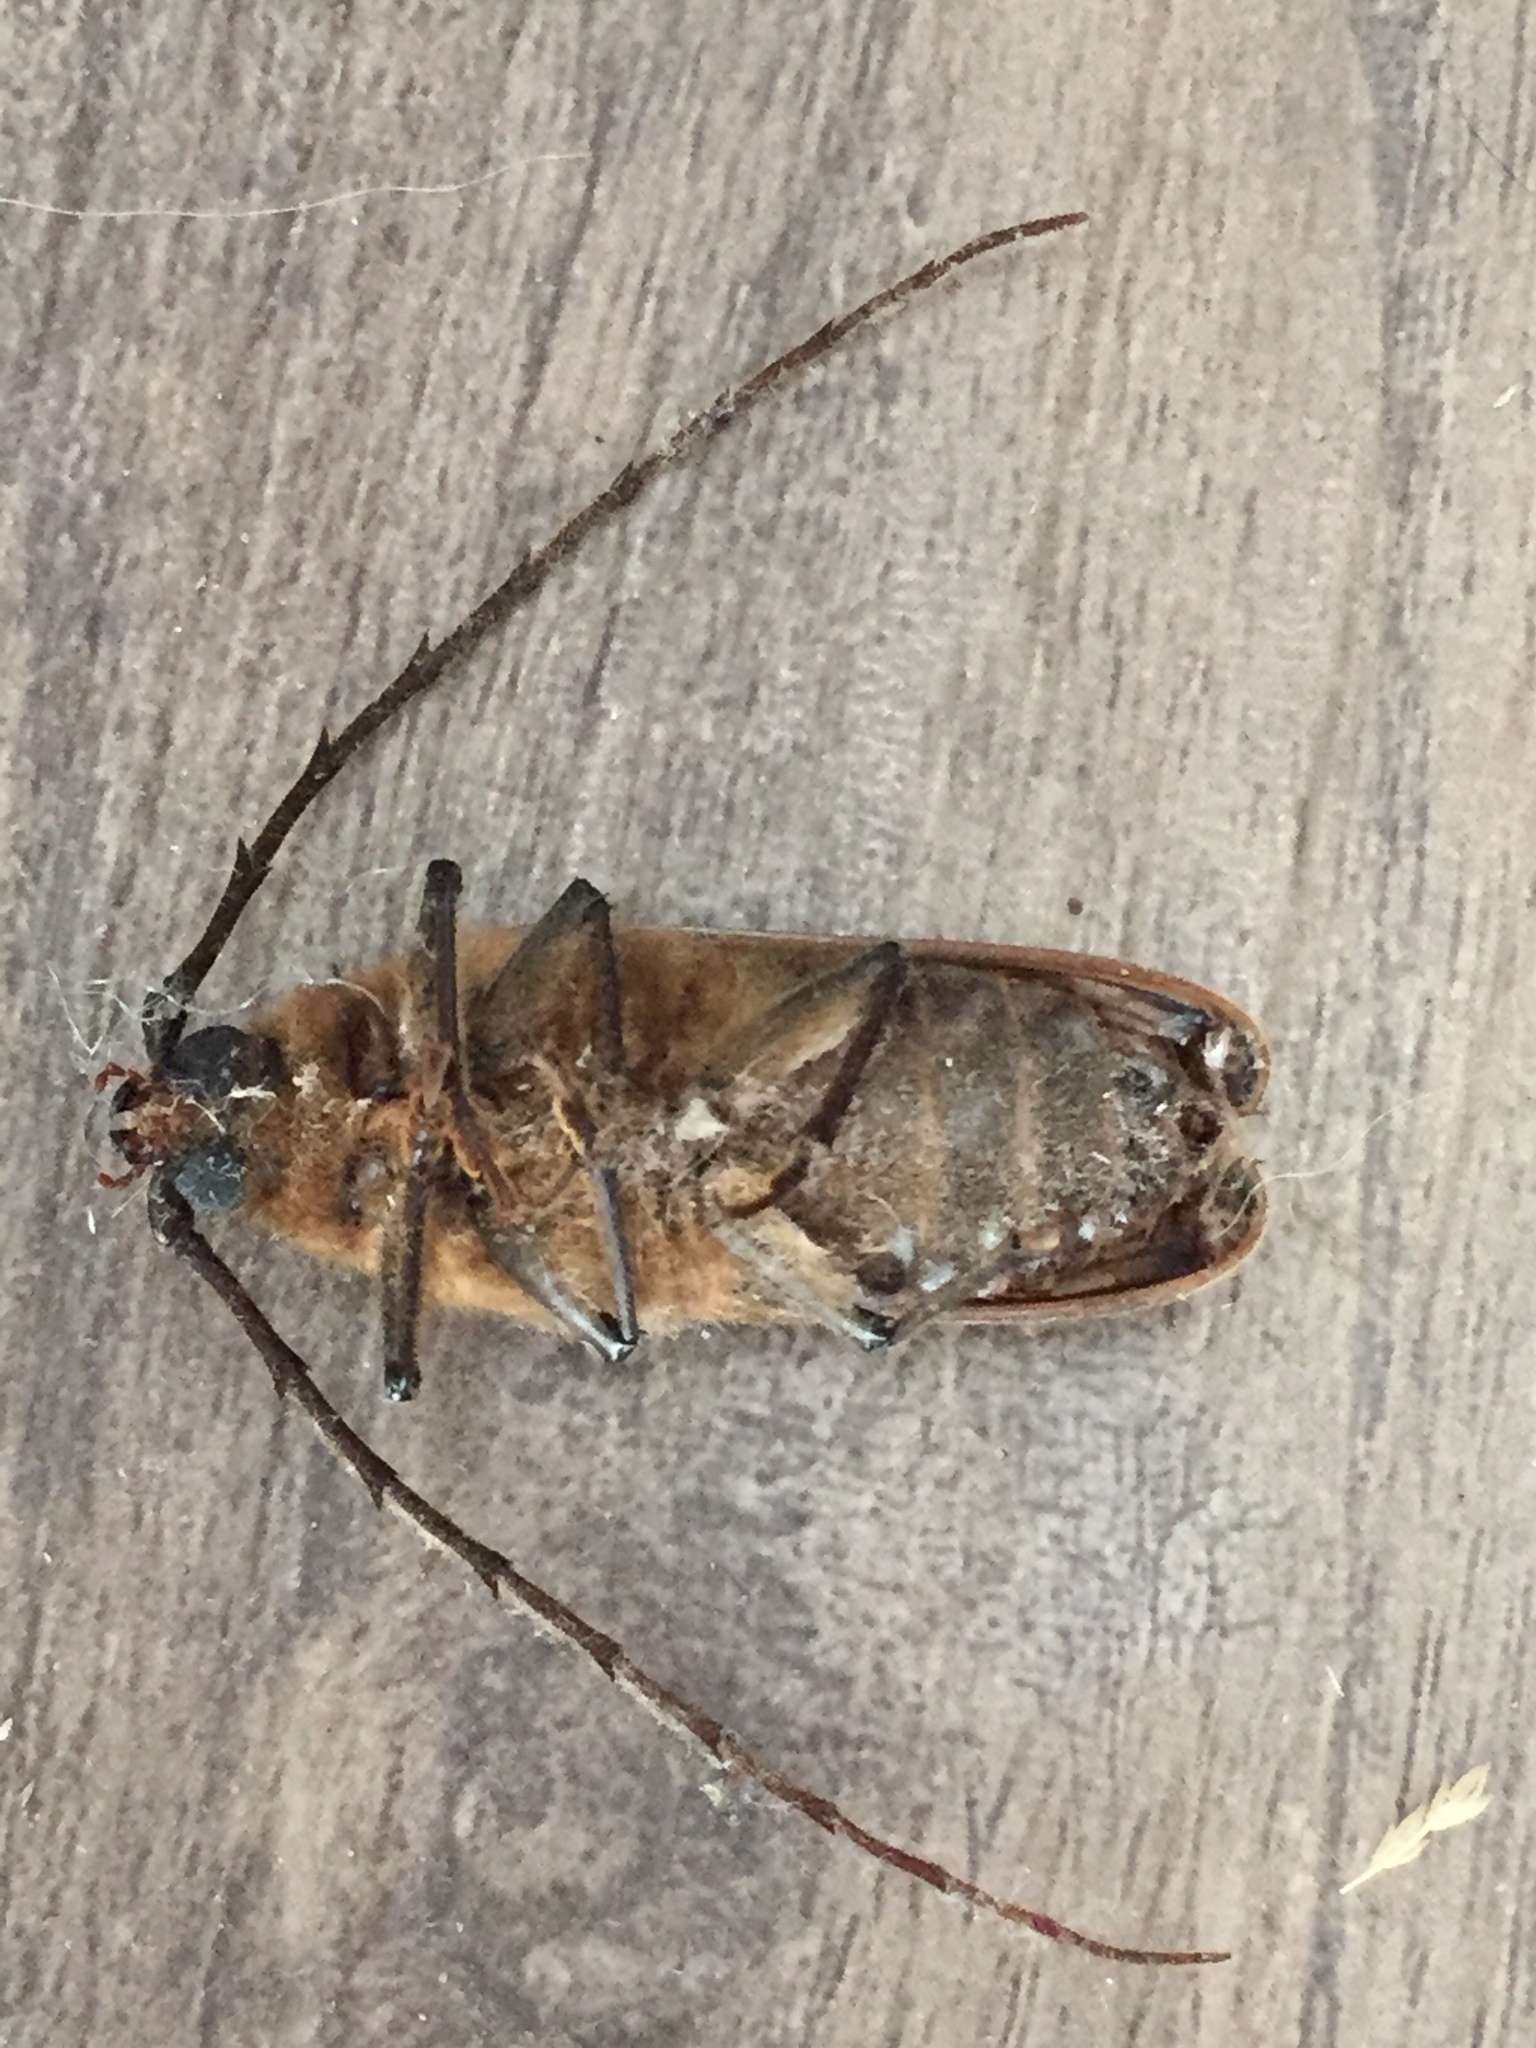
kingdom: Animalia
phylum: Arthropoda
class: Insecta
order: Coleoptera
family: Cerambycidae
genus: Prionoplus
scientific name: Prionoplus reticularis
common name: Huhu beetle
